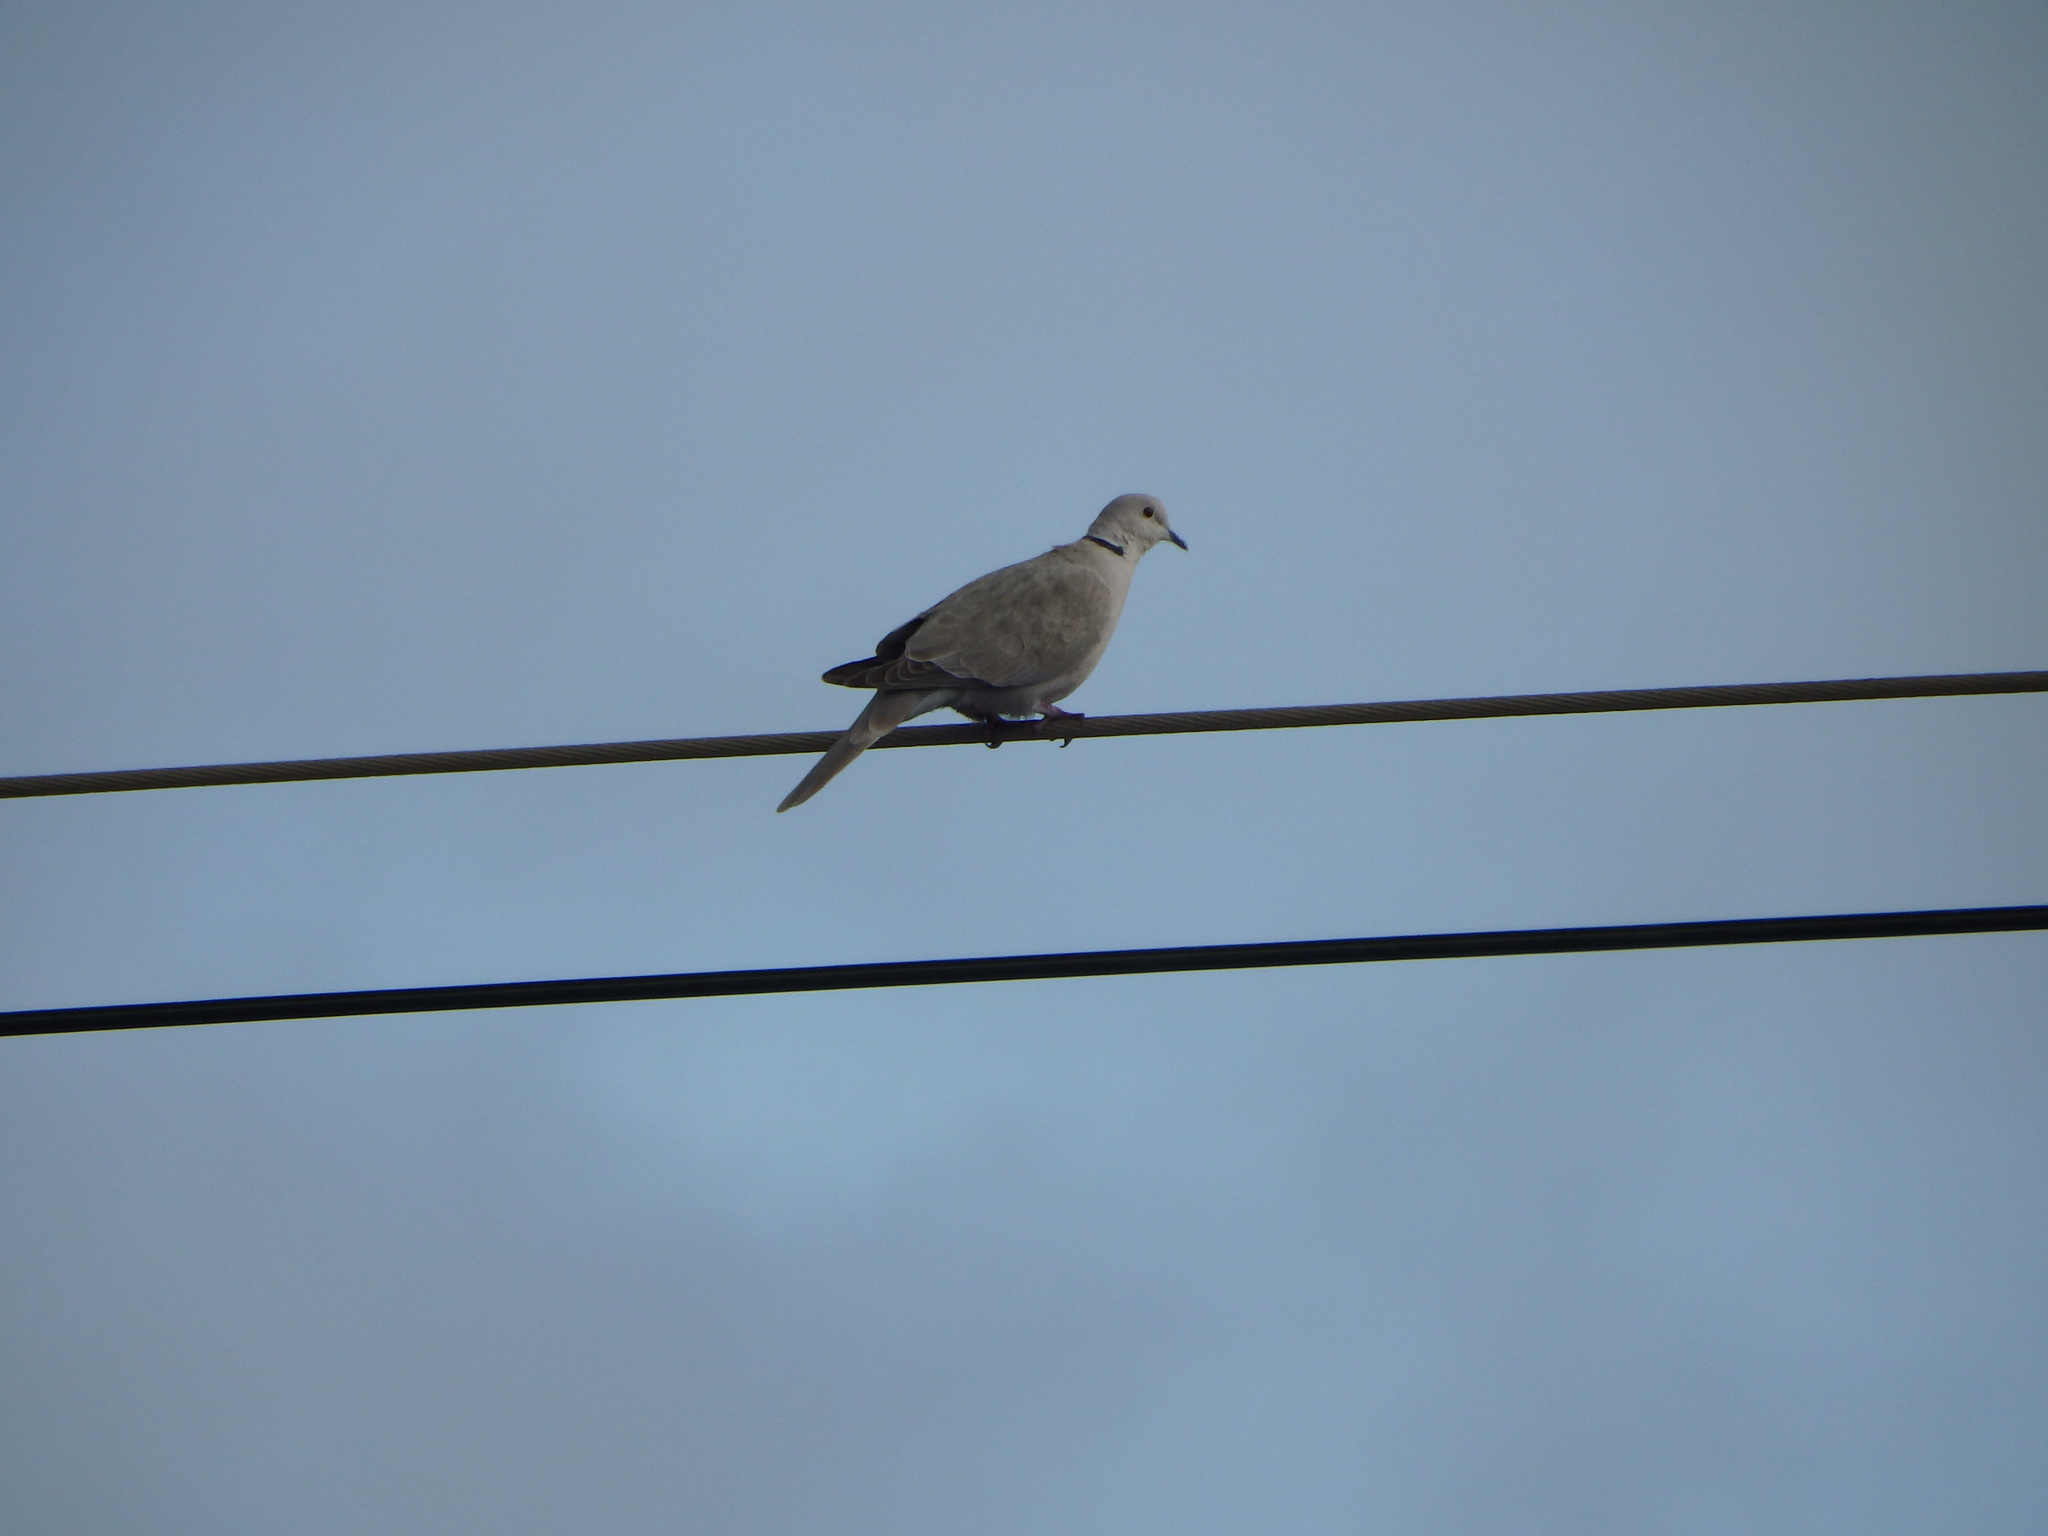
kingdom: Animalia
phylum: Chordata
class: Aves
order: Columbiformes
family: Columbidae
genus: Streptopelia
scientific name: Streptopelia decaocto
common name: Eurasian collared dove
